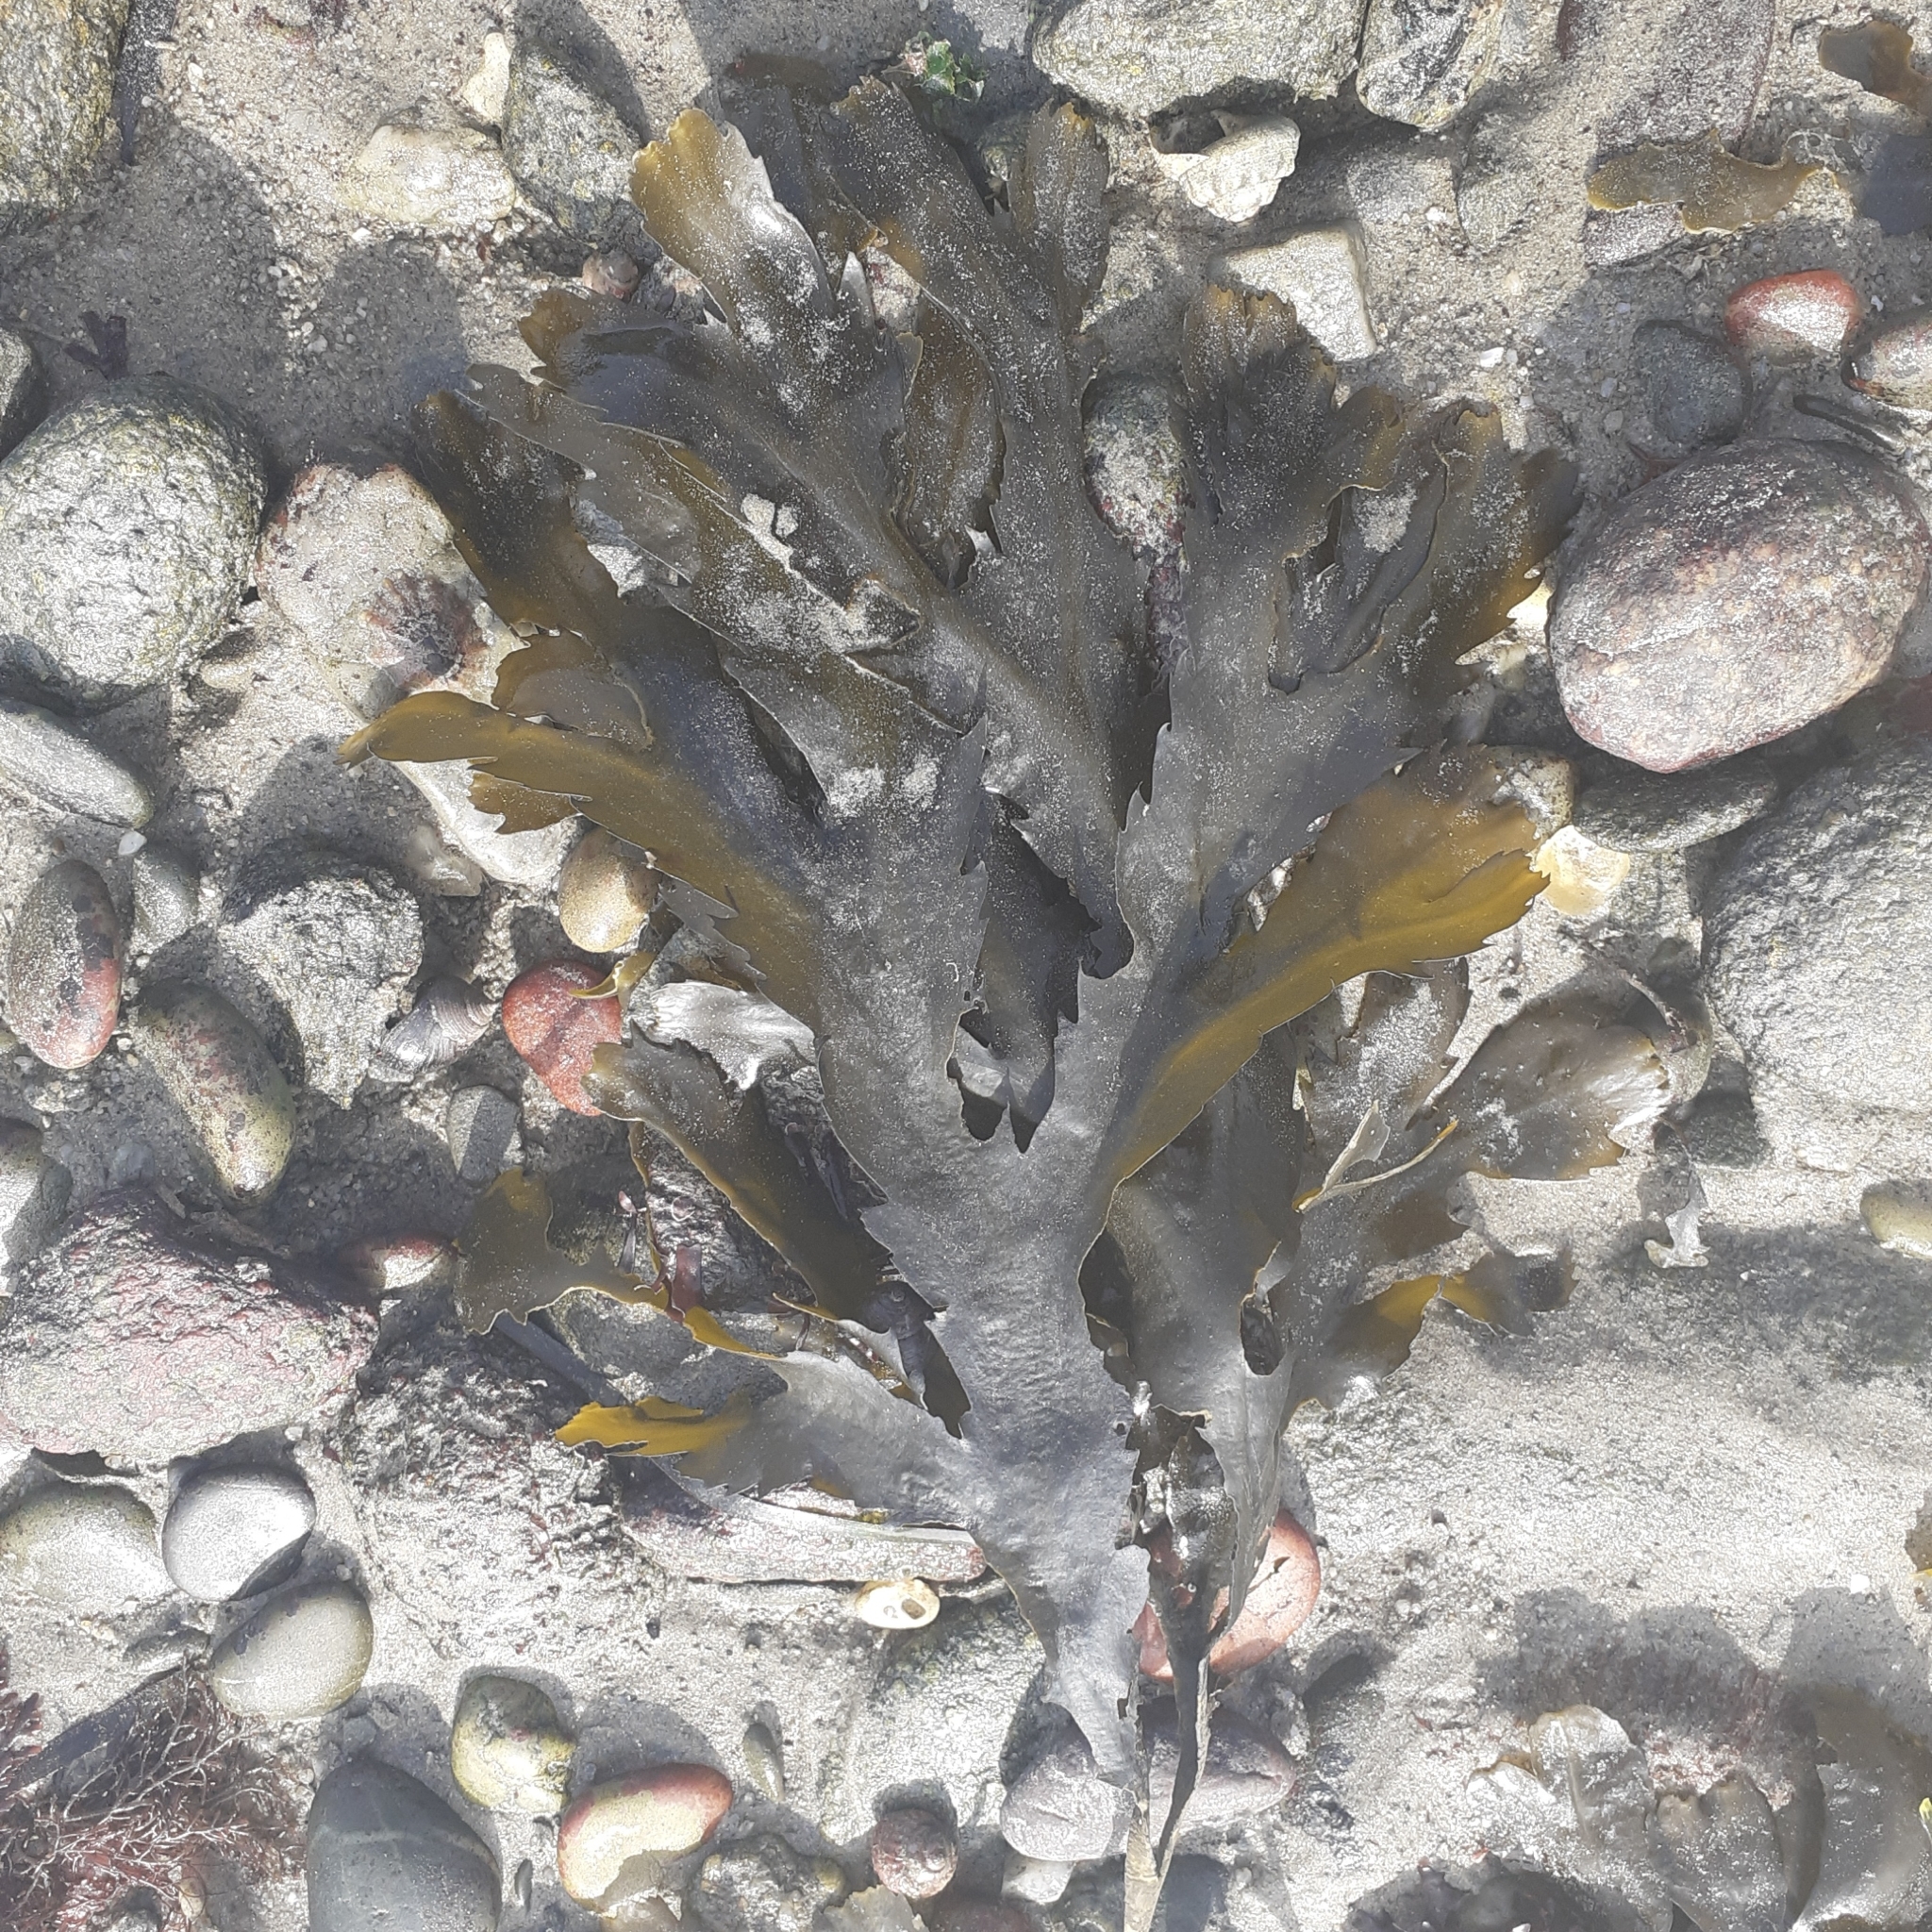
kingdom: Chromista
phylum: Ochrophyta
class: Phaeophyceae
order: Fucales
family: Fucaceae
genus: Fucus
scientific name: Fucus serratus
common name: Toothed wrack
